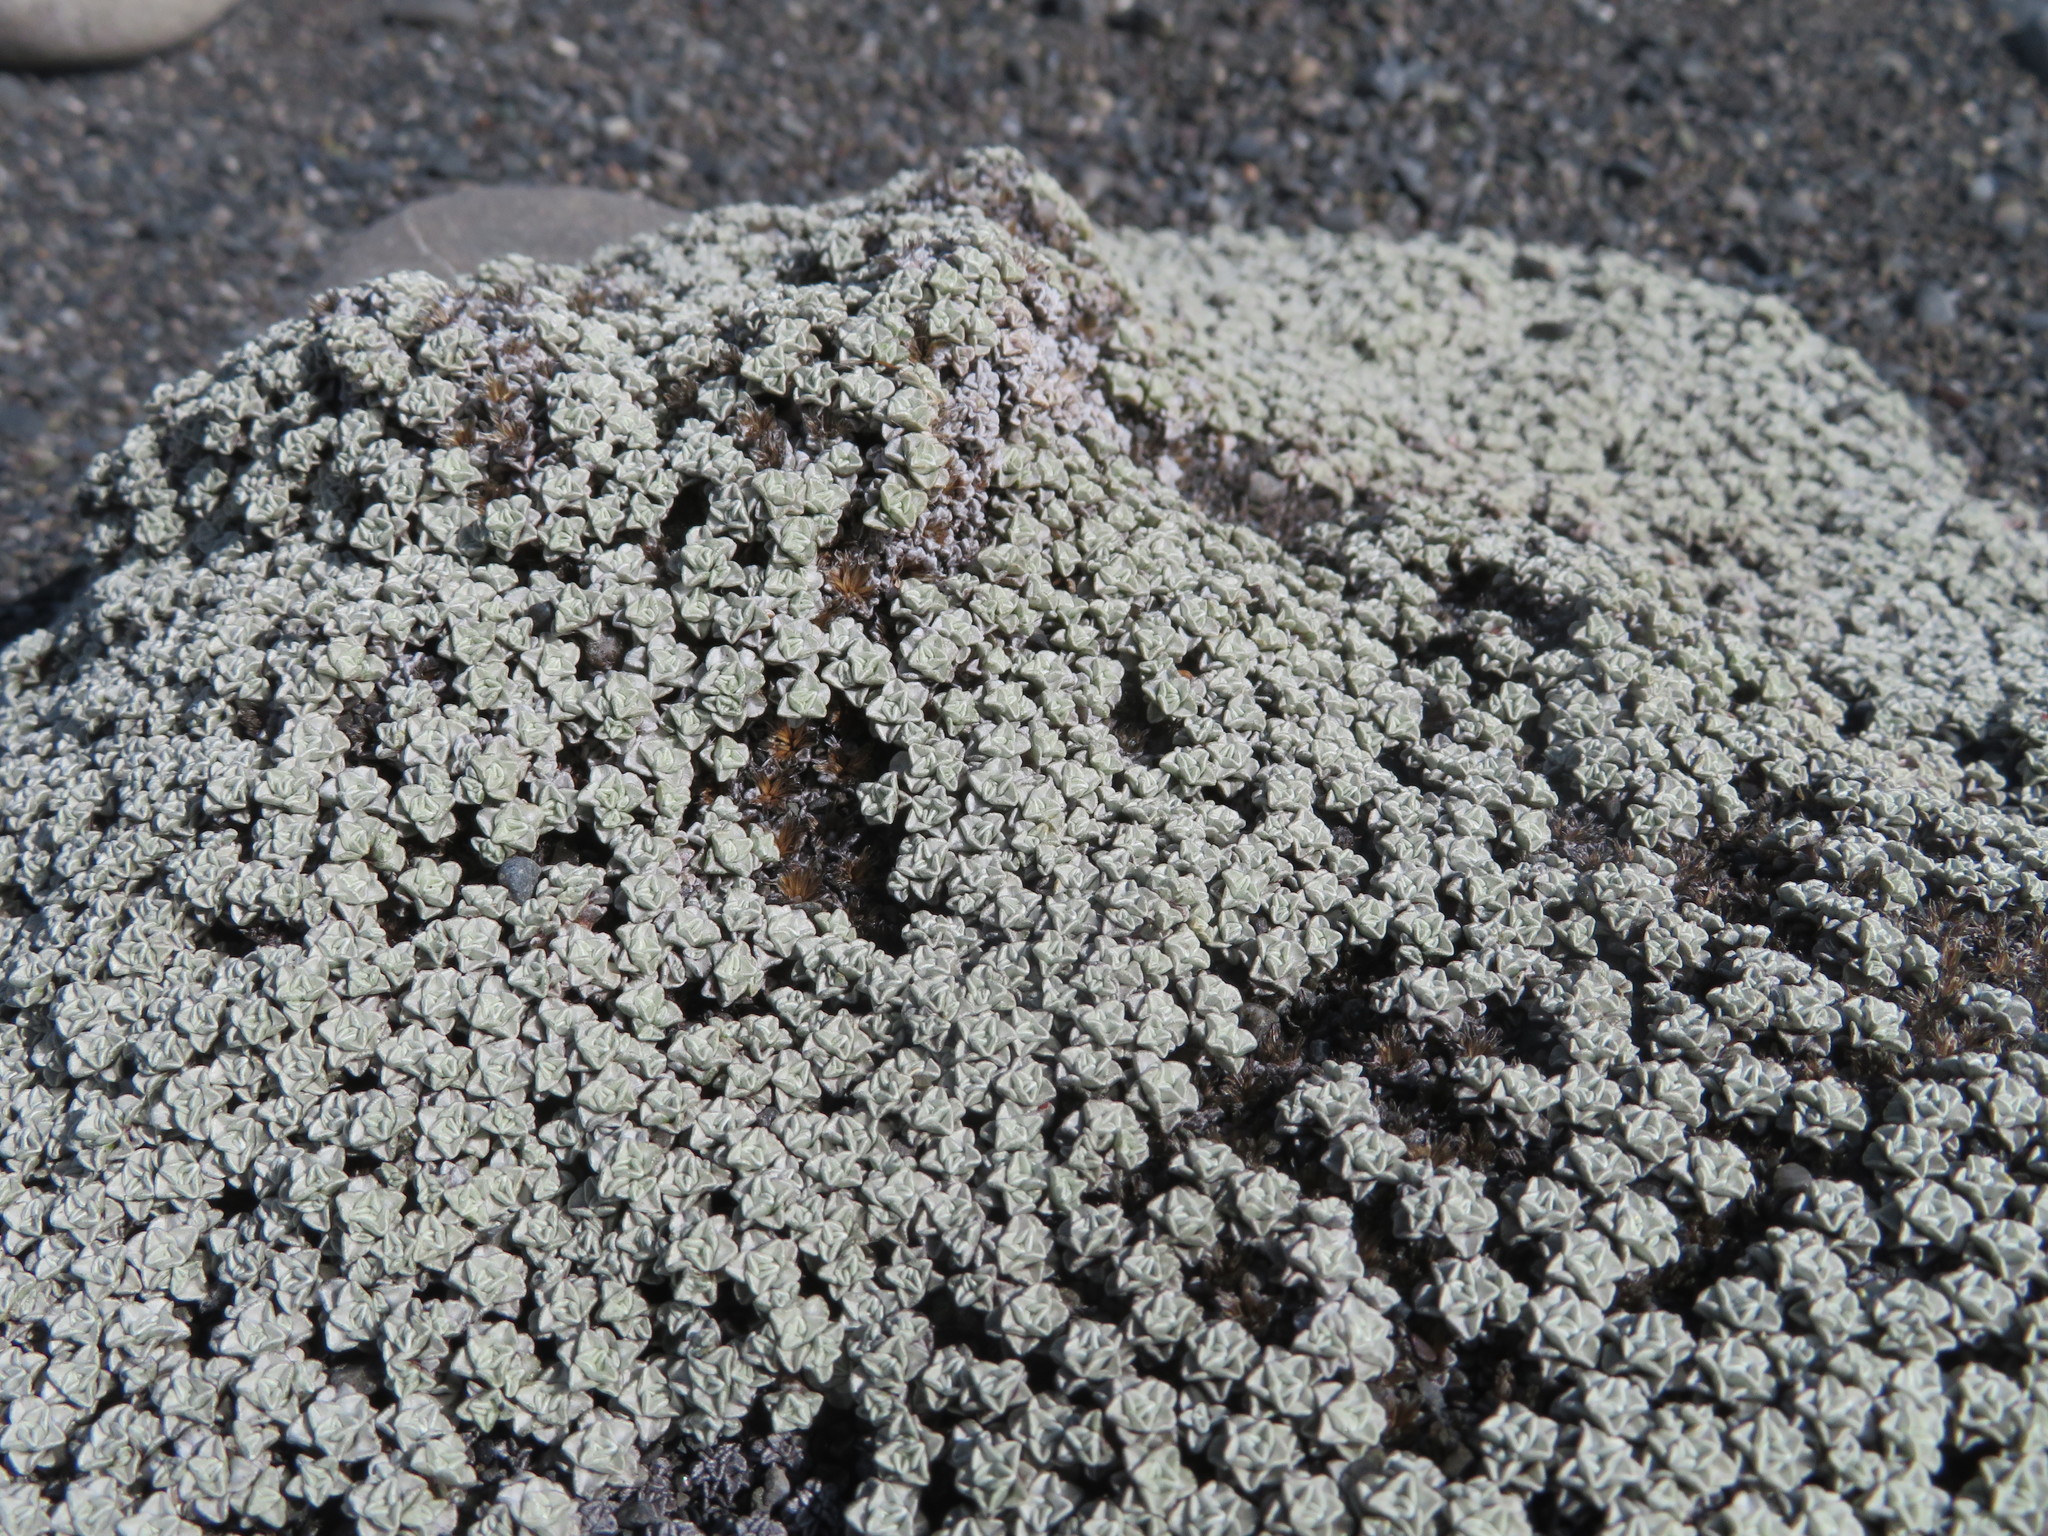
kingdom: Plantae
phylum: Tracheophyta
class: Magnoliopsida
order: Asterales
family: Asteraceae
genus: Raoulia
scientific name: Raoulia hookeri
